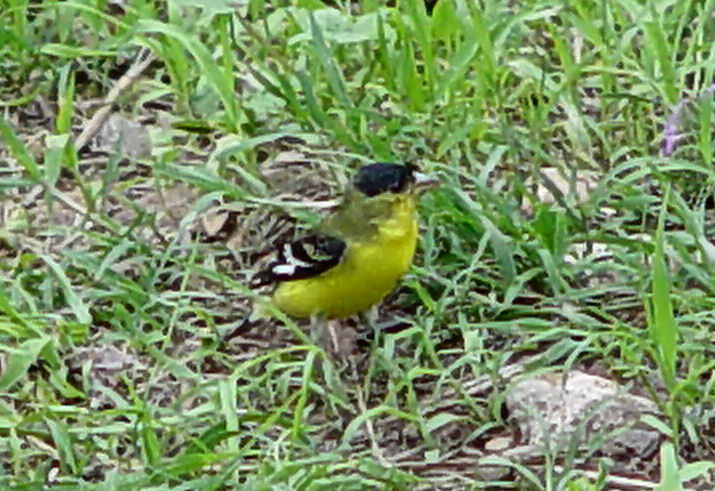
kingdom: Animalia
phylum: Chordata
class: Aves
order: Passeriformes
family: Fringillidae
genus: Spinus
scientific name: Spinus psaltria
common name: Lesser goldfinch
